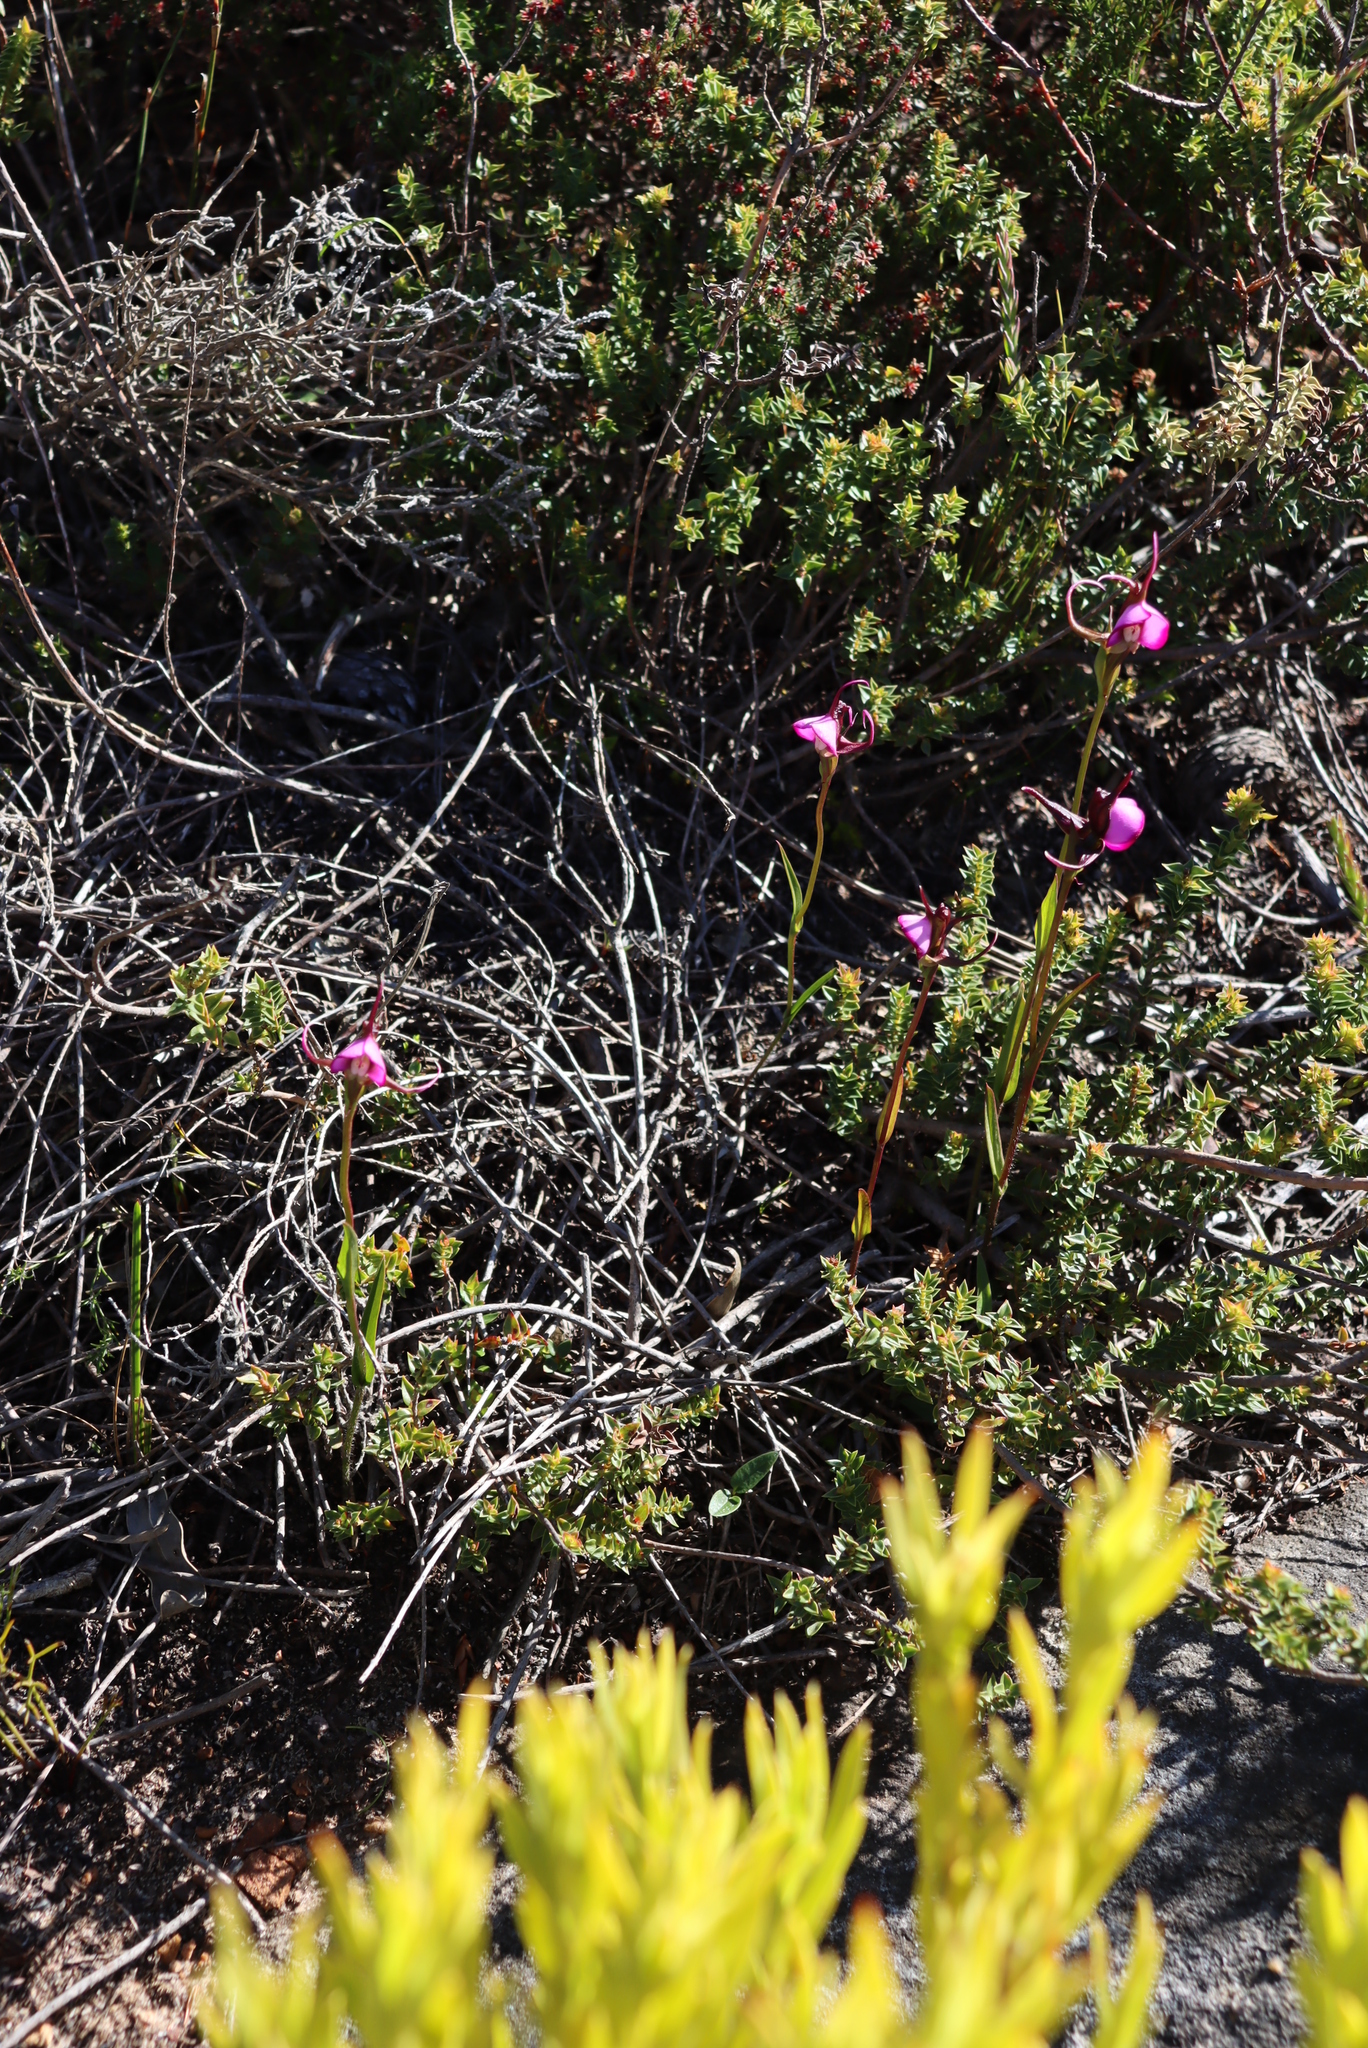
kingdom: Plantae
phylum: Tracheophyta
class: Liliopsida
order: Asparagales
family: Orchidaceae
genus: Disperis
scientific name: Disperis capensis
